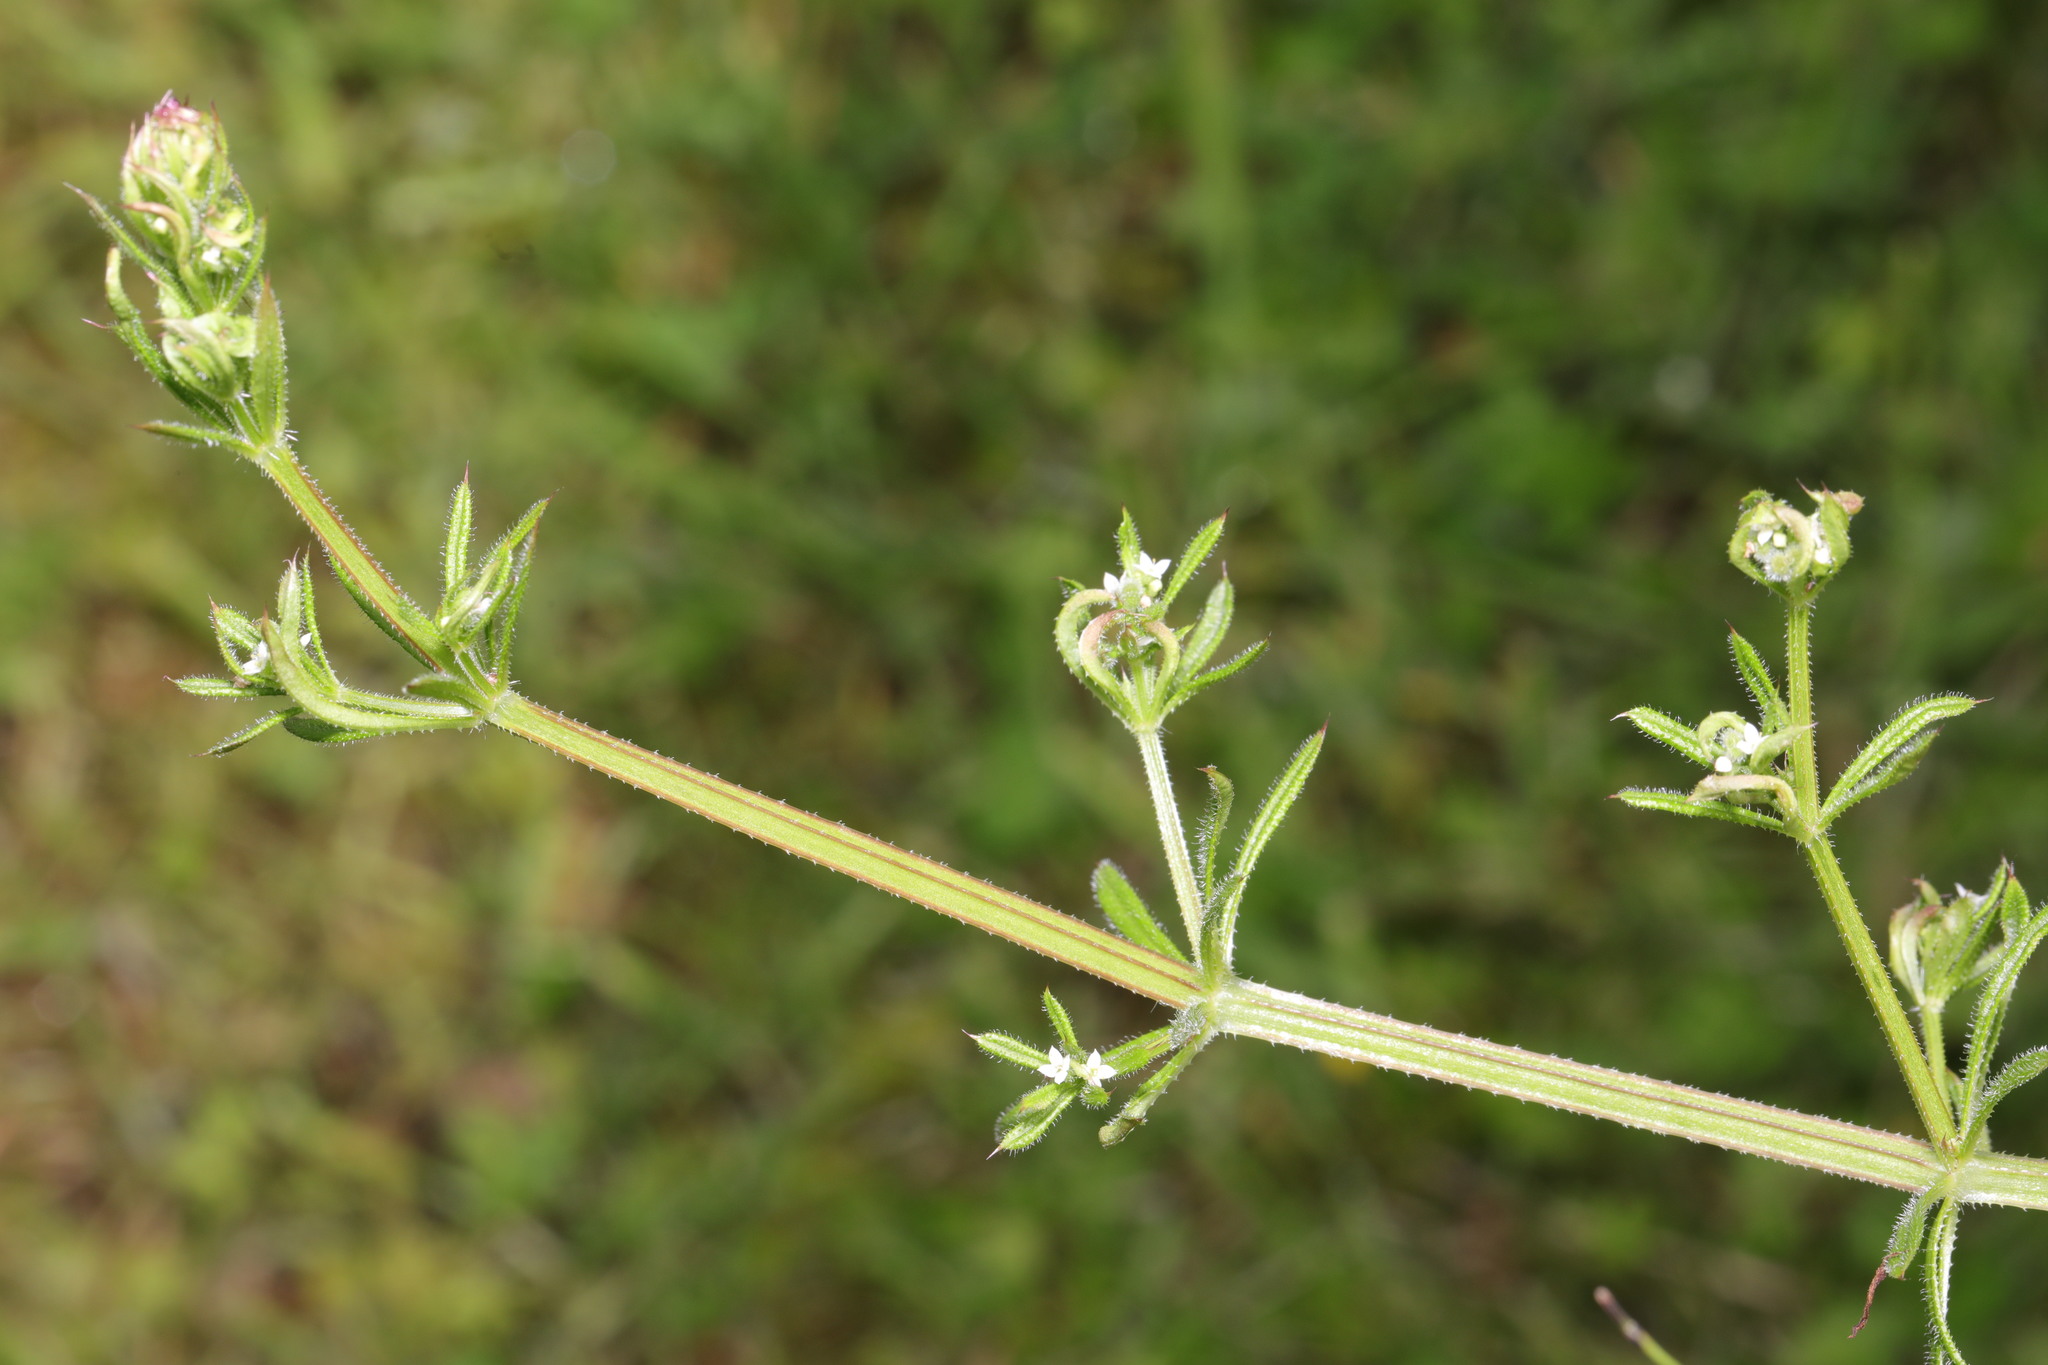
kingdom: Plantae
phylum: Tracheophyta
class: Magnoliopsida
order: Gentianales
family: Rubiaceae
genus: Galium
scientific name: Galium aparine
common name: Cleavers
